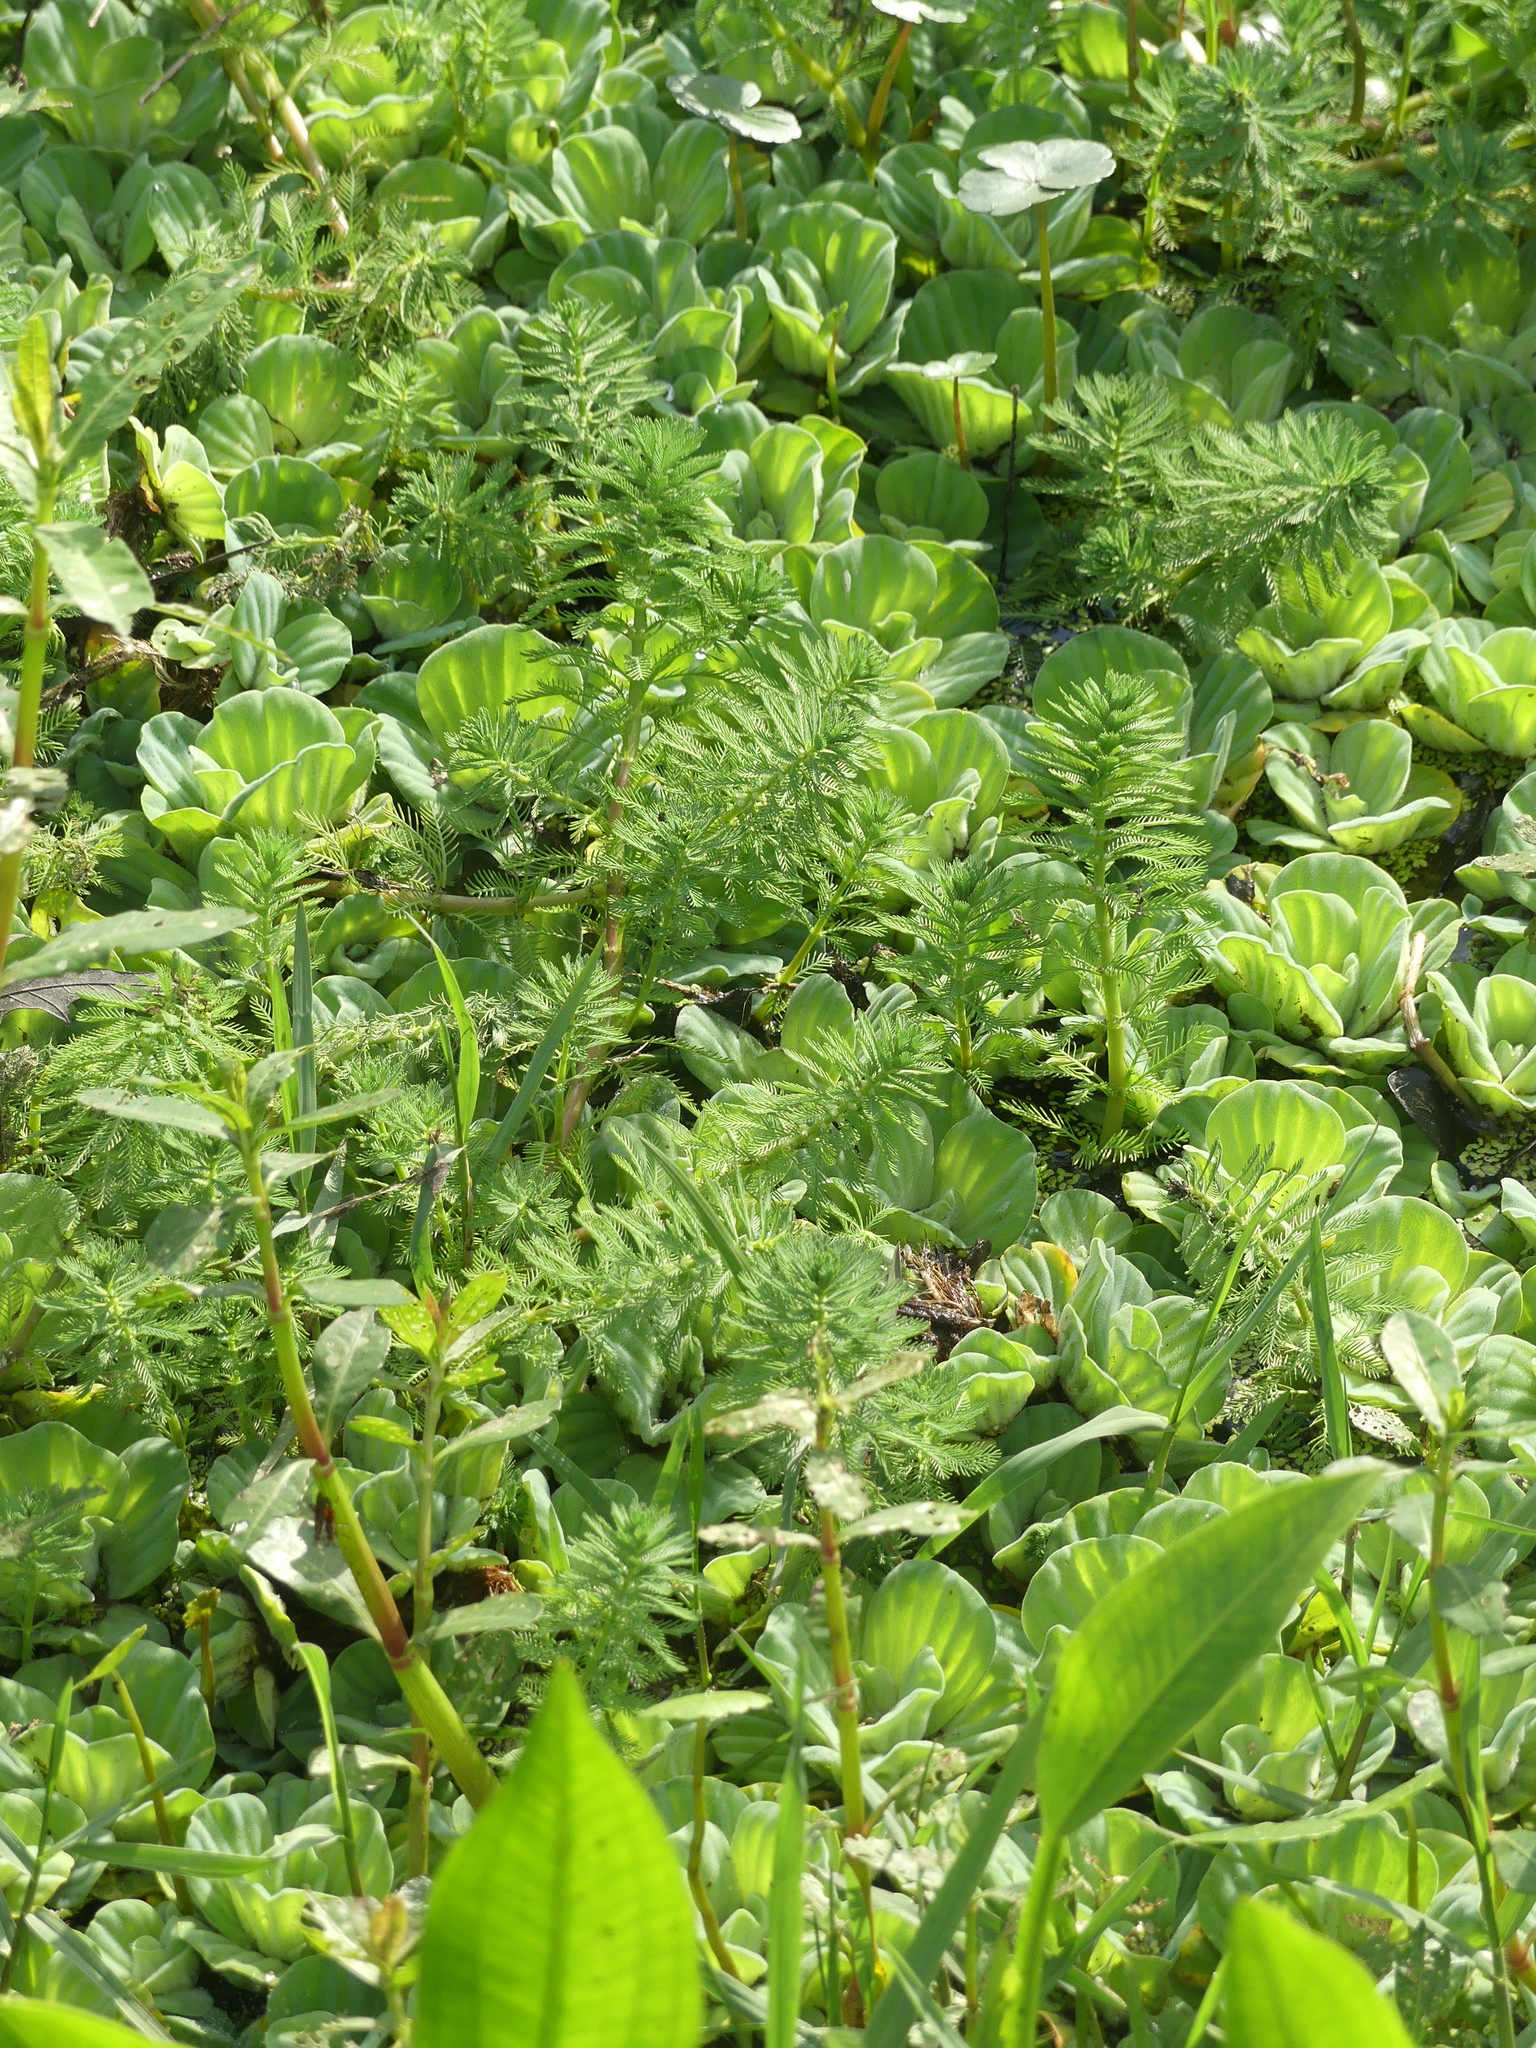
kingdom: Plantae
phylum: Tracheophyta
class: Magnoliopsida
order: Saxifragales
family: Haloragaceae
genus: Myriophyllum
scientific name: Myriophyllum aquaticum
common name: Parrot's feather
